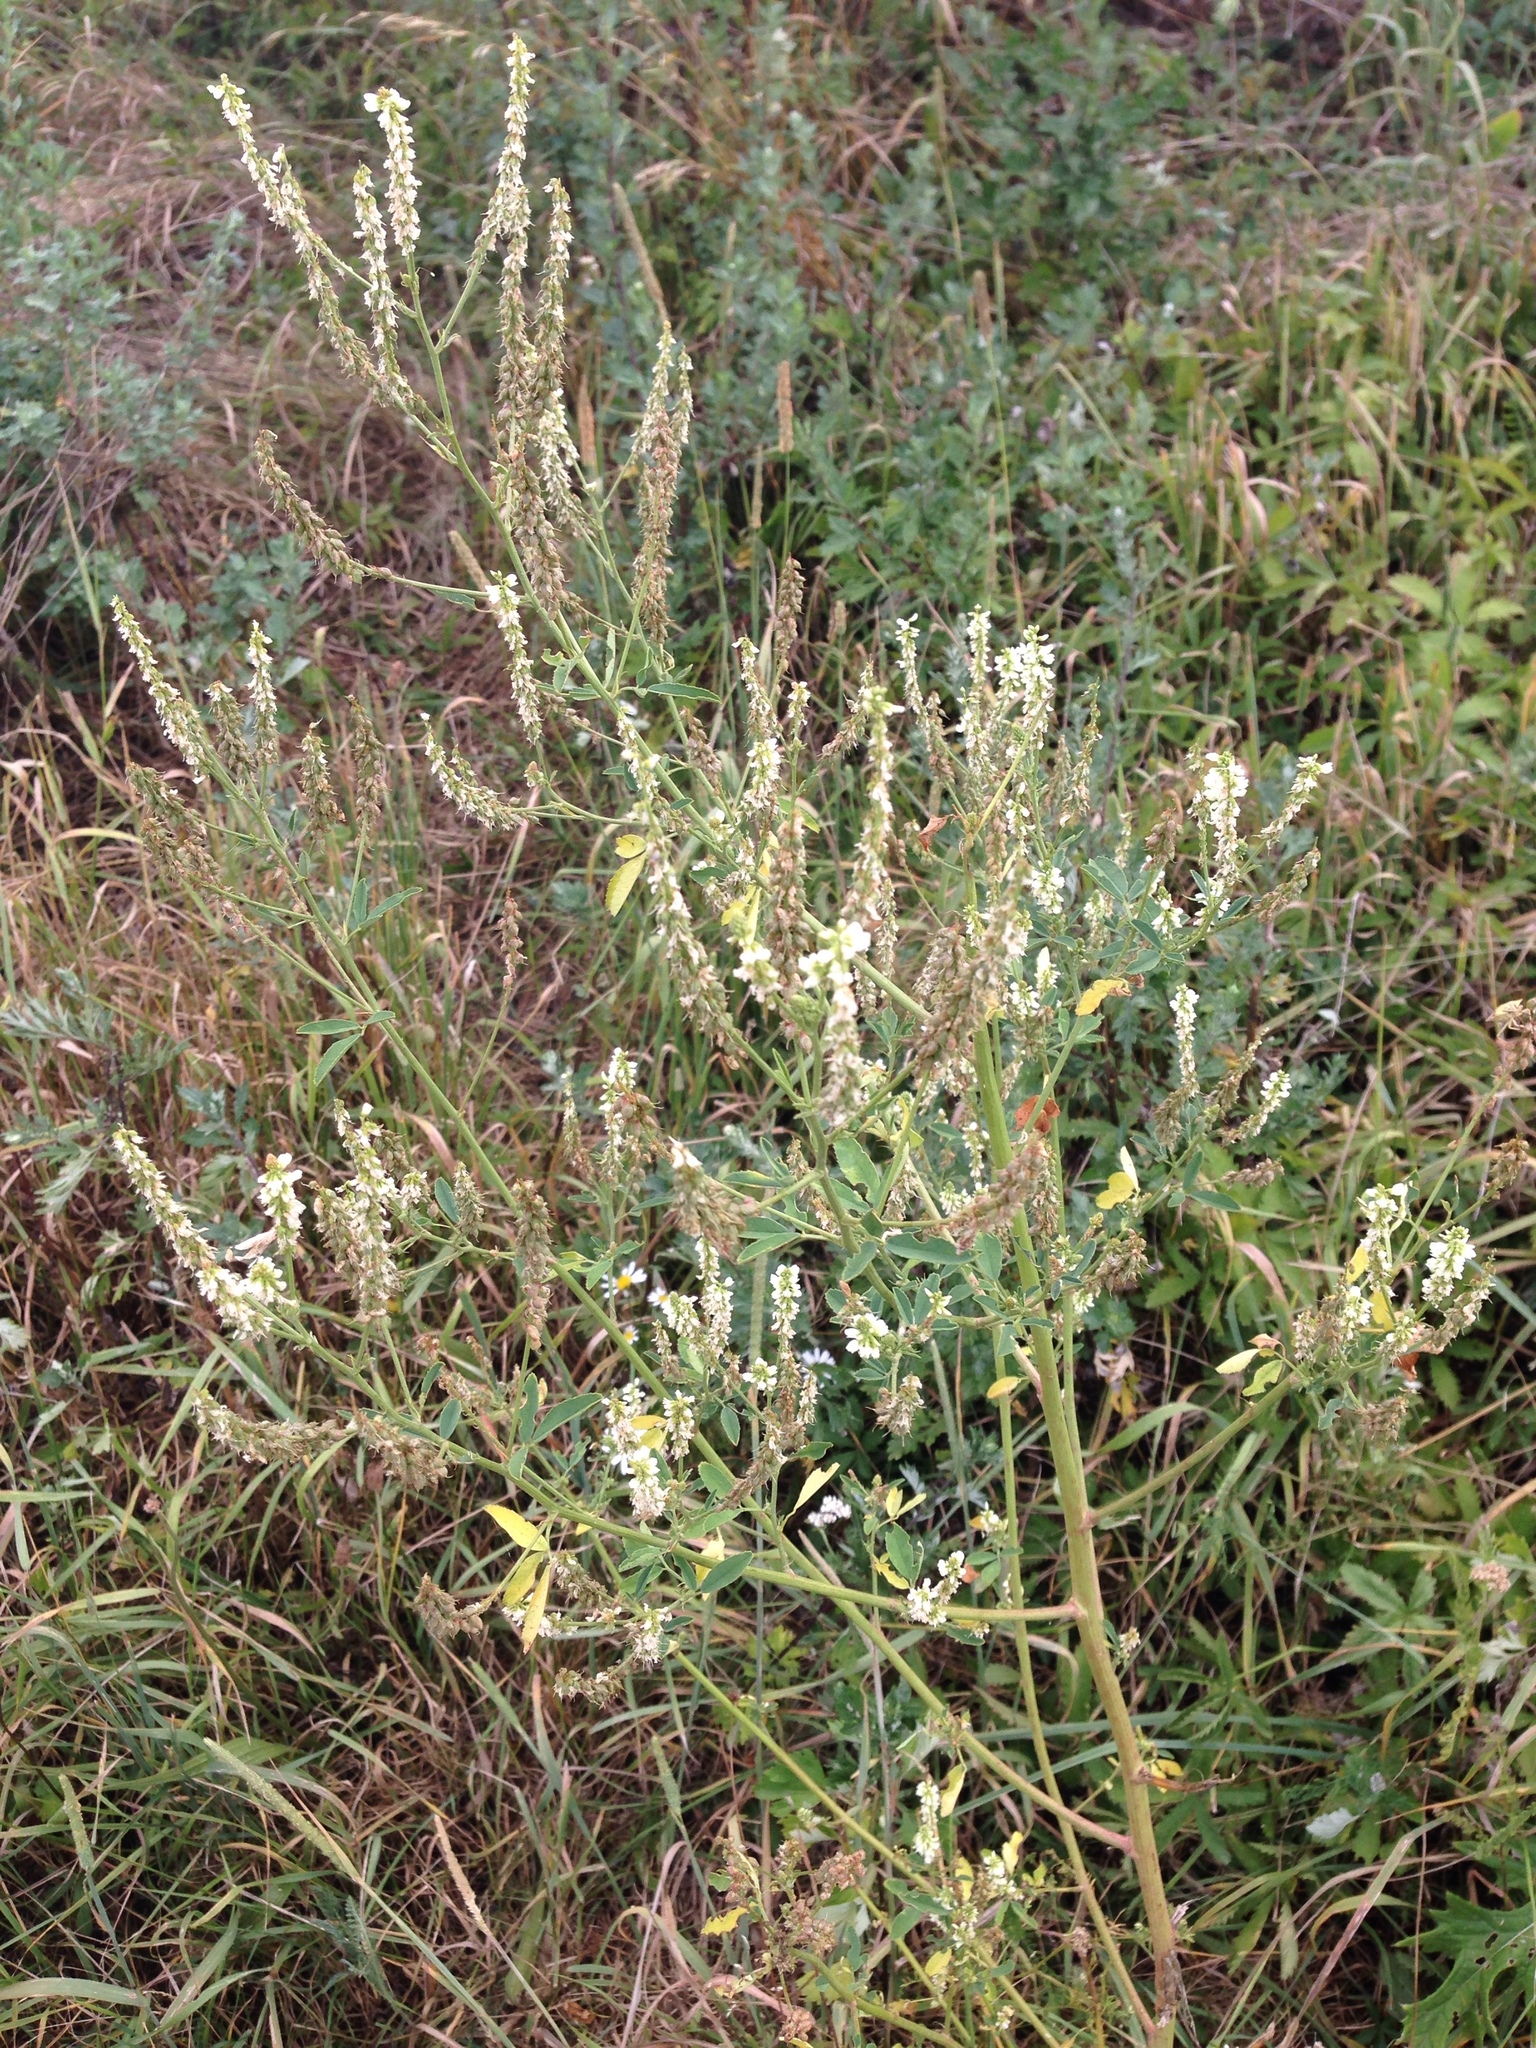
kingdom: Plantae
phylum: Tracheophyta
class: Magnoliopsida
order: Fabales
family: Fabaceae
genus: Melilotus
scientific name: Melilotus albus
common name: White melilot
